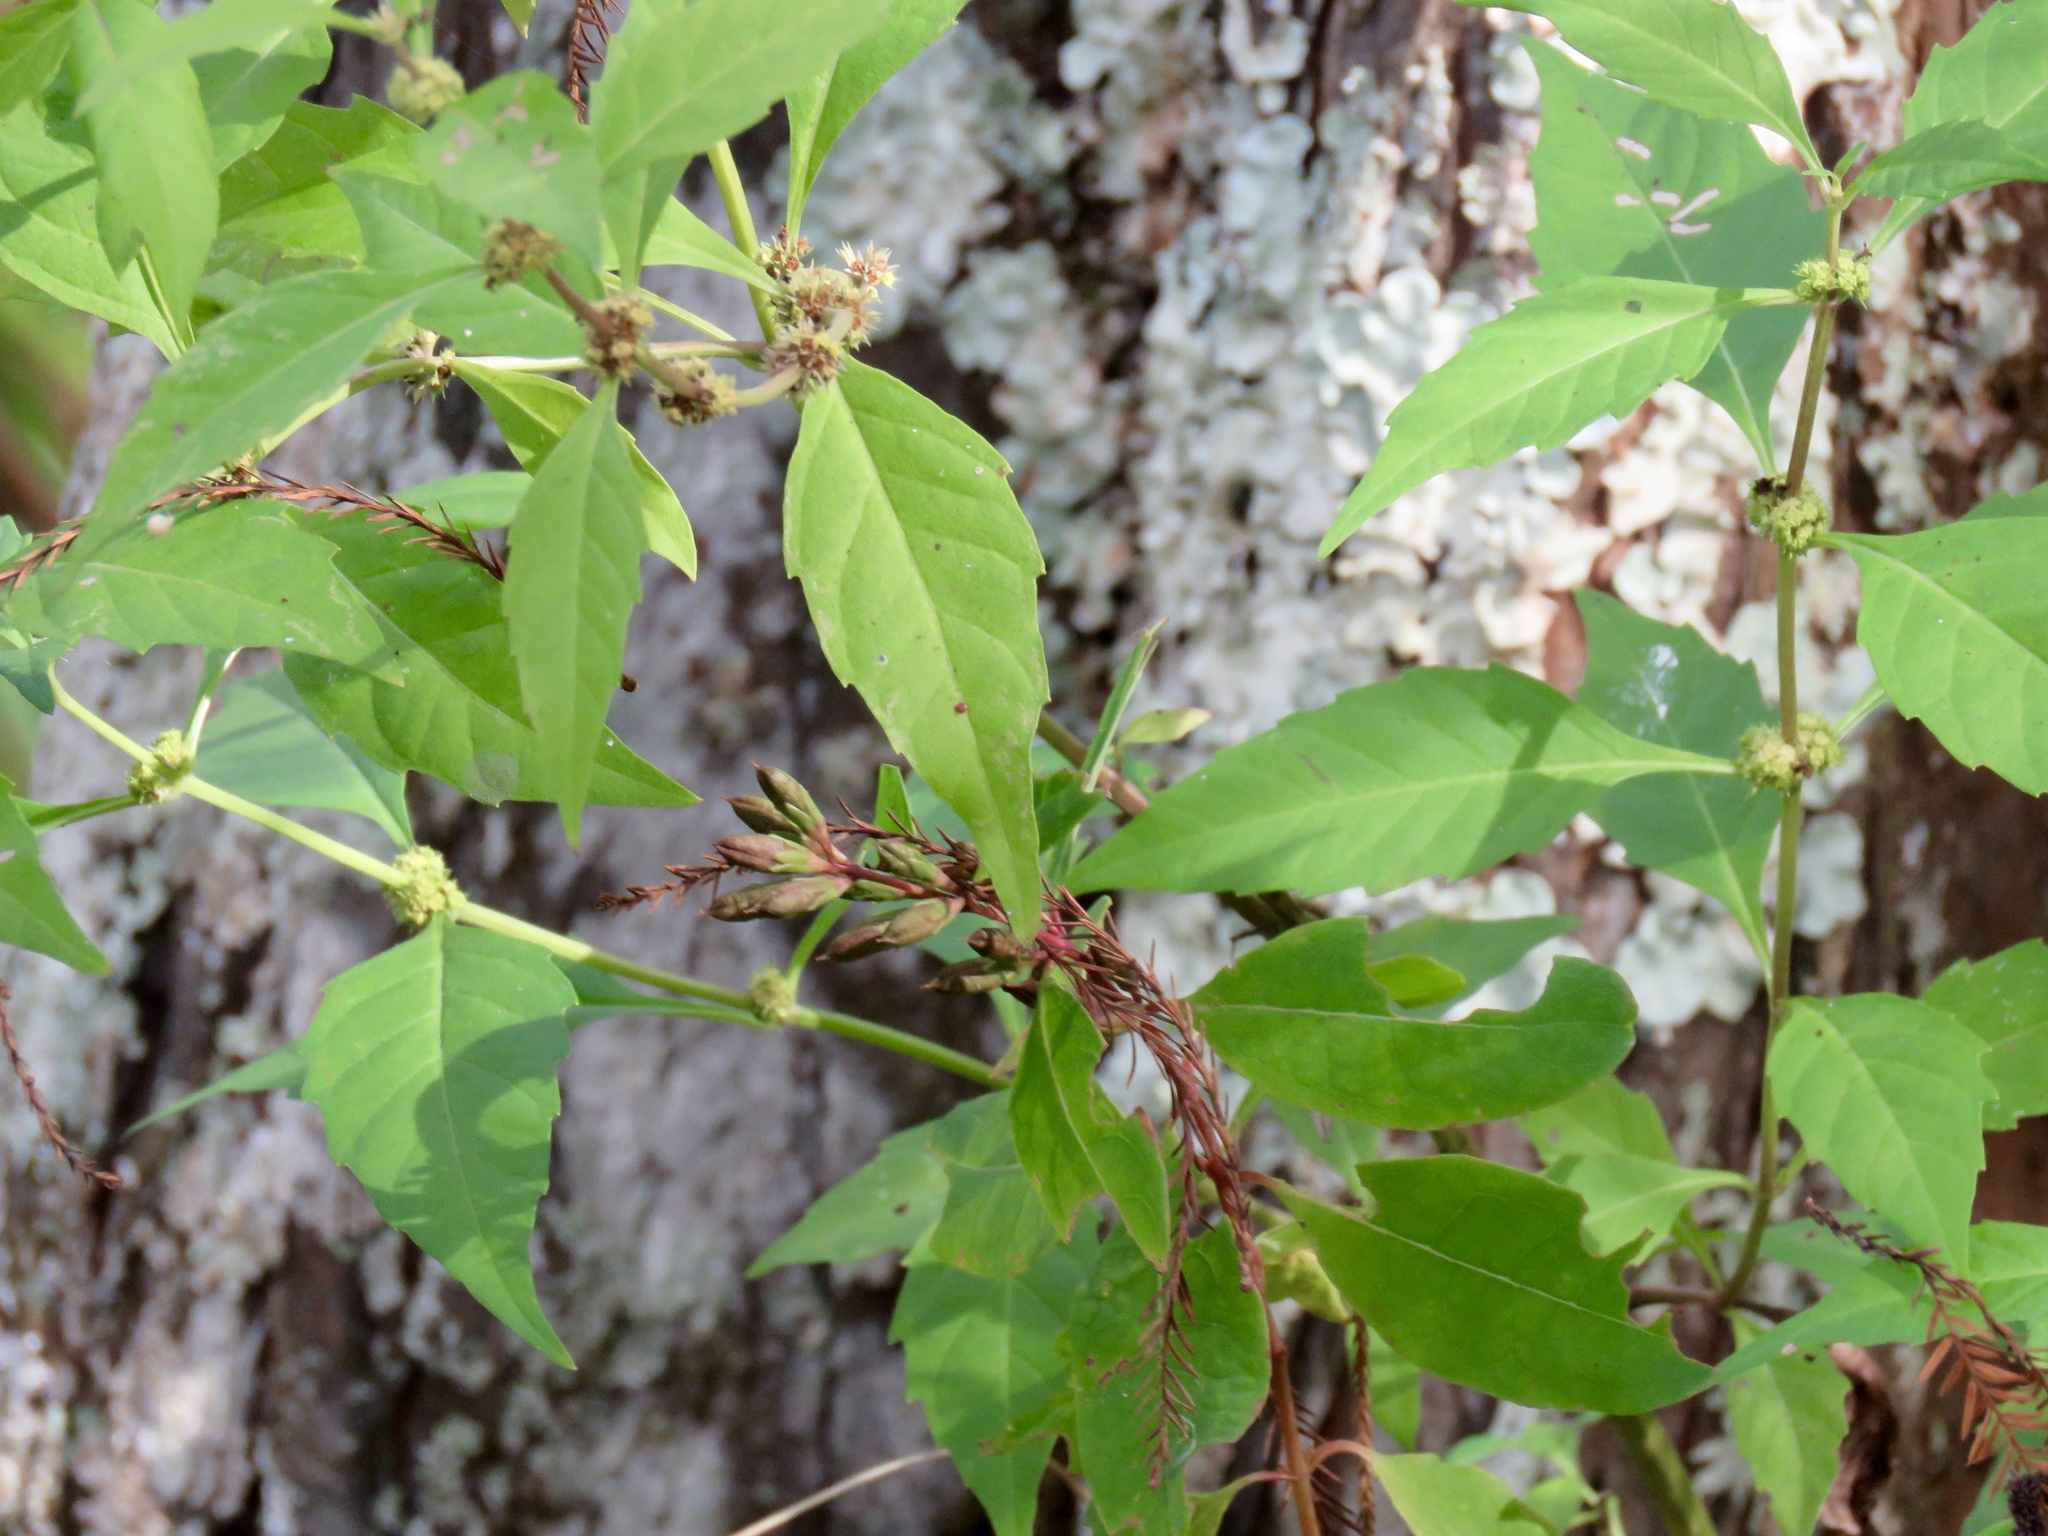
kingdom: Plantae
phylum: Tracheophyta
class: Magnoliopsida
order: Lamiales
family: Lamiaceae
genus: Lycopus
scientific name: Lycopus rubellus
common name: Stalked bugleweed
